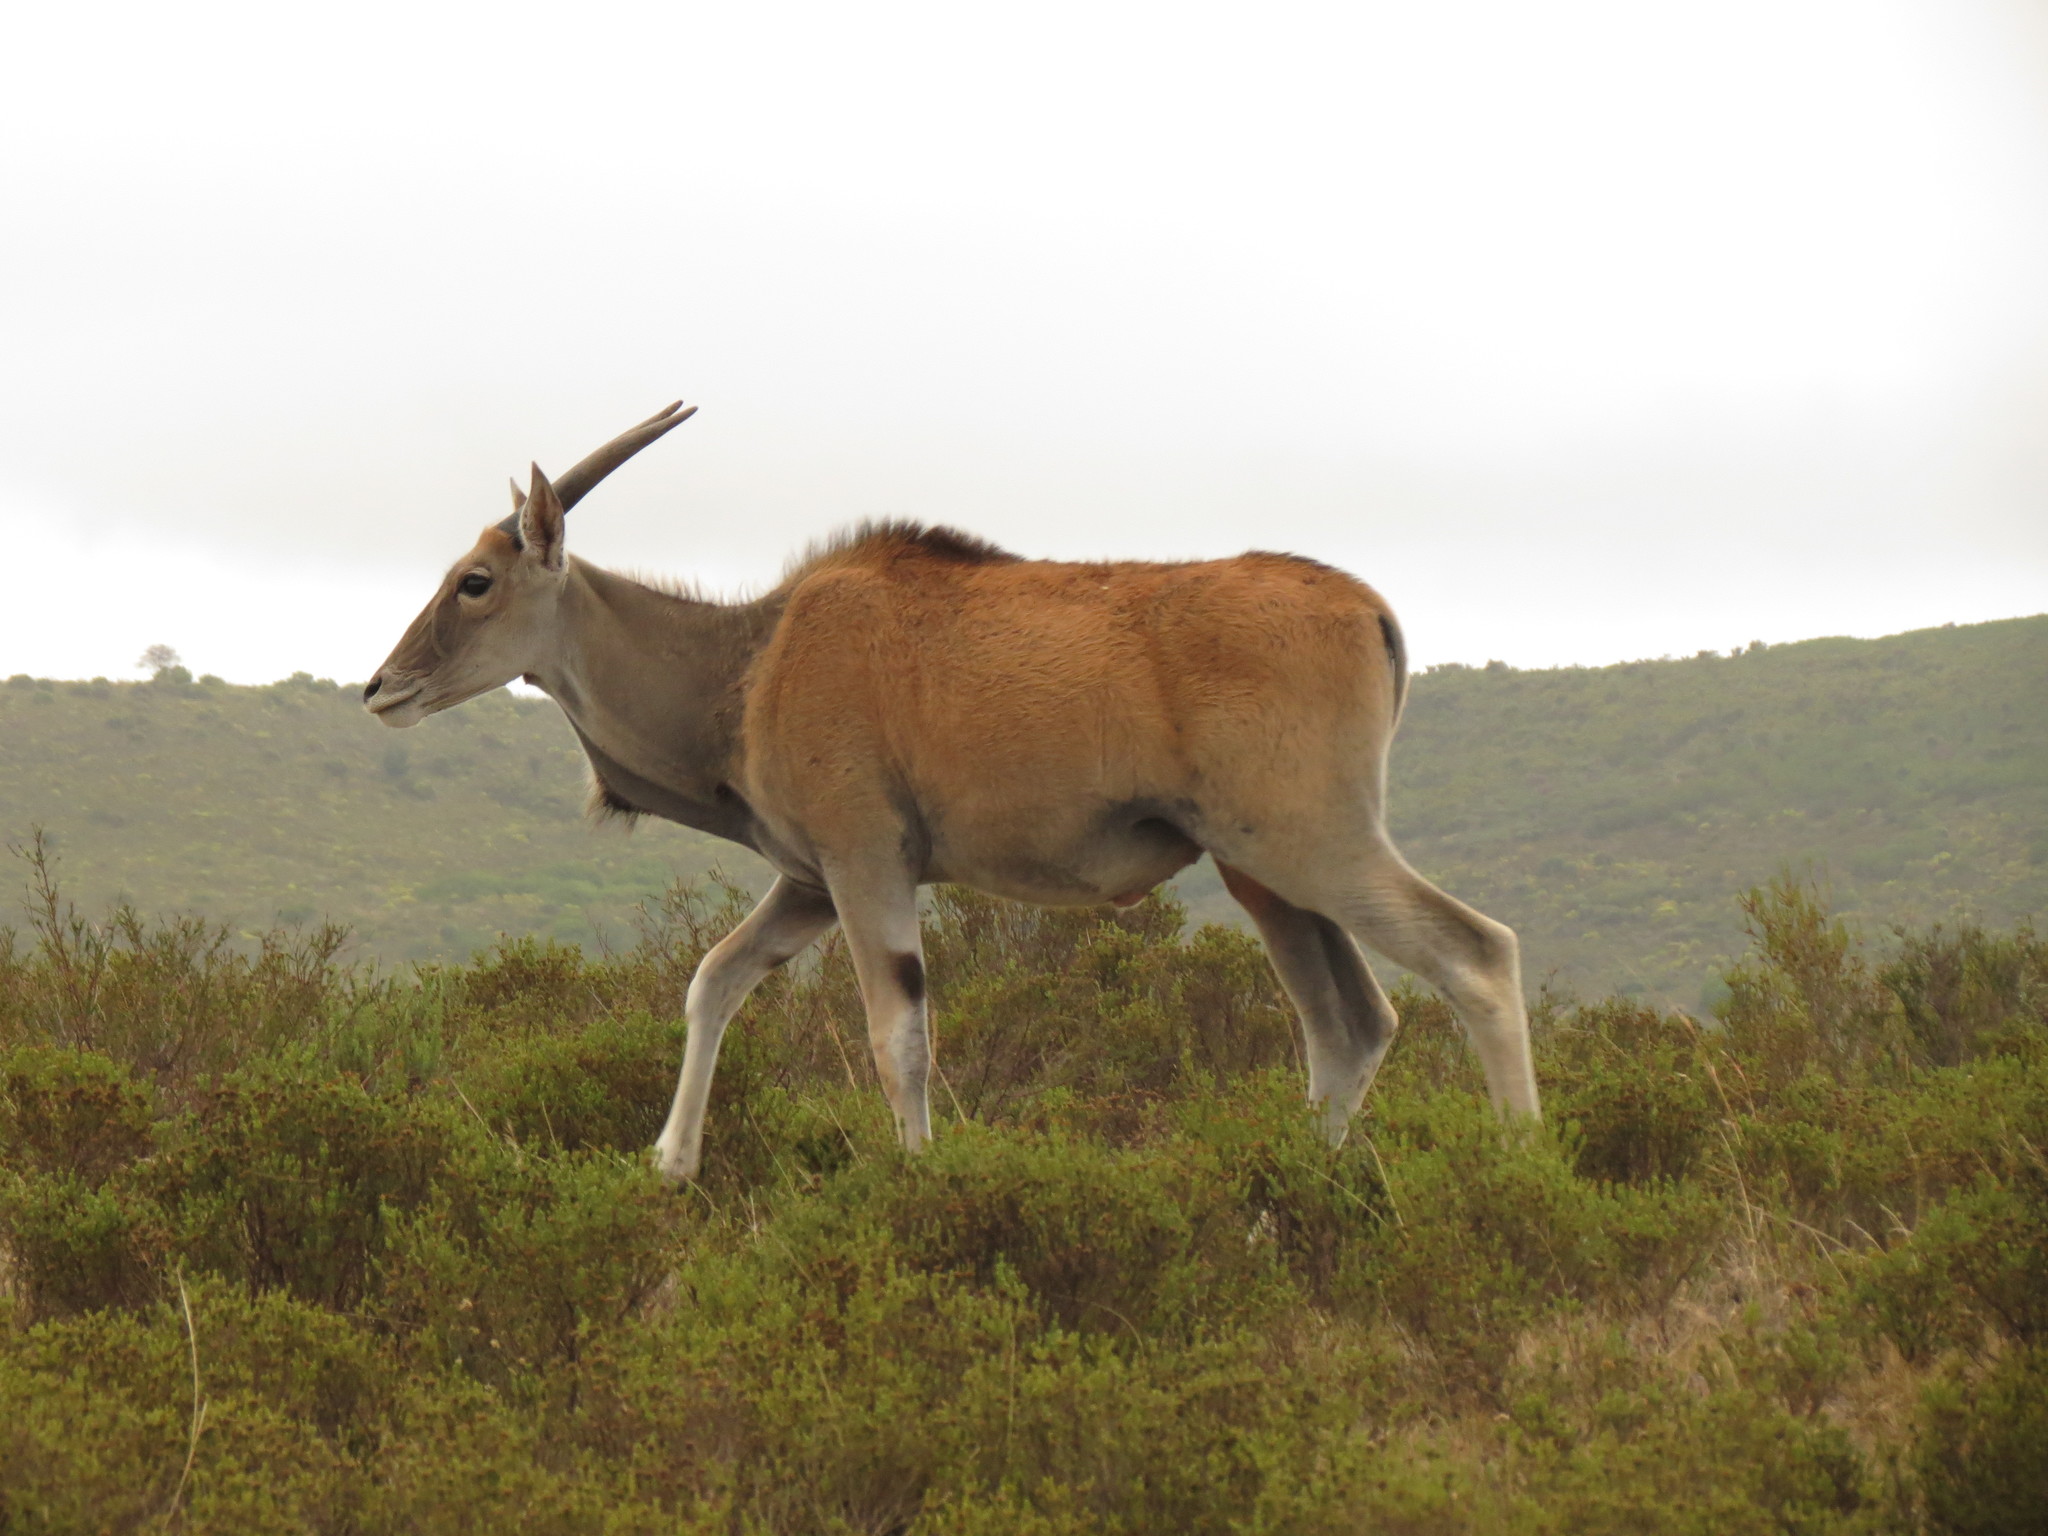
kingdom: Animalia
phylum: Chordata
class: Mammalia
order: Artiodactyla
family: Bovidae
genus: Taurotragus
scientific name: Taurotragus oryx
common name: Common eland
